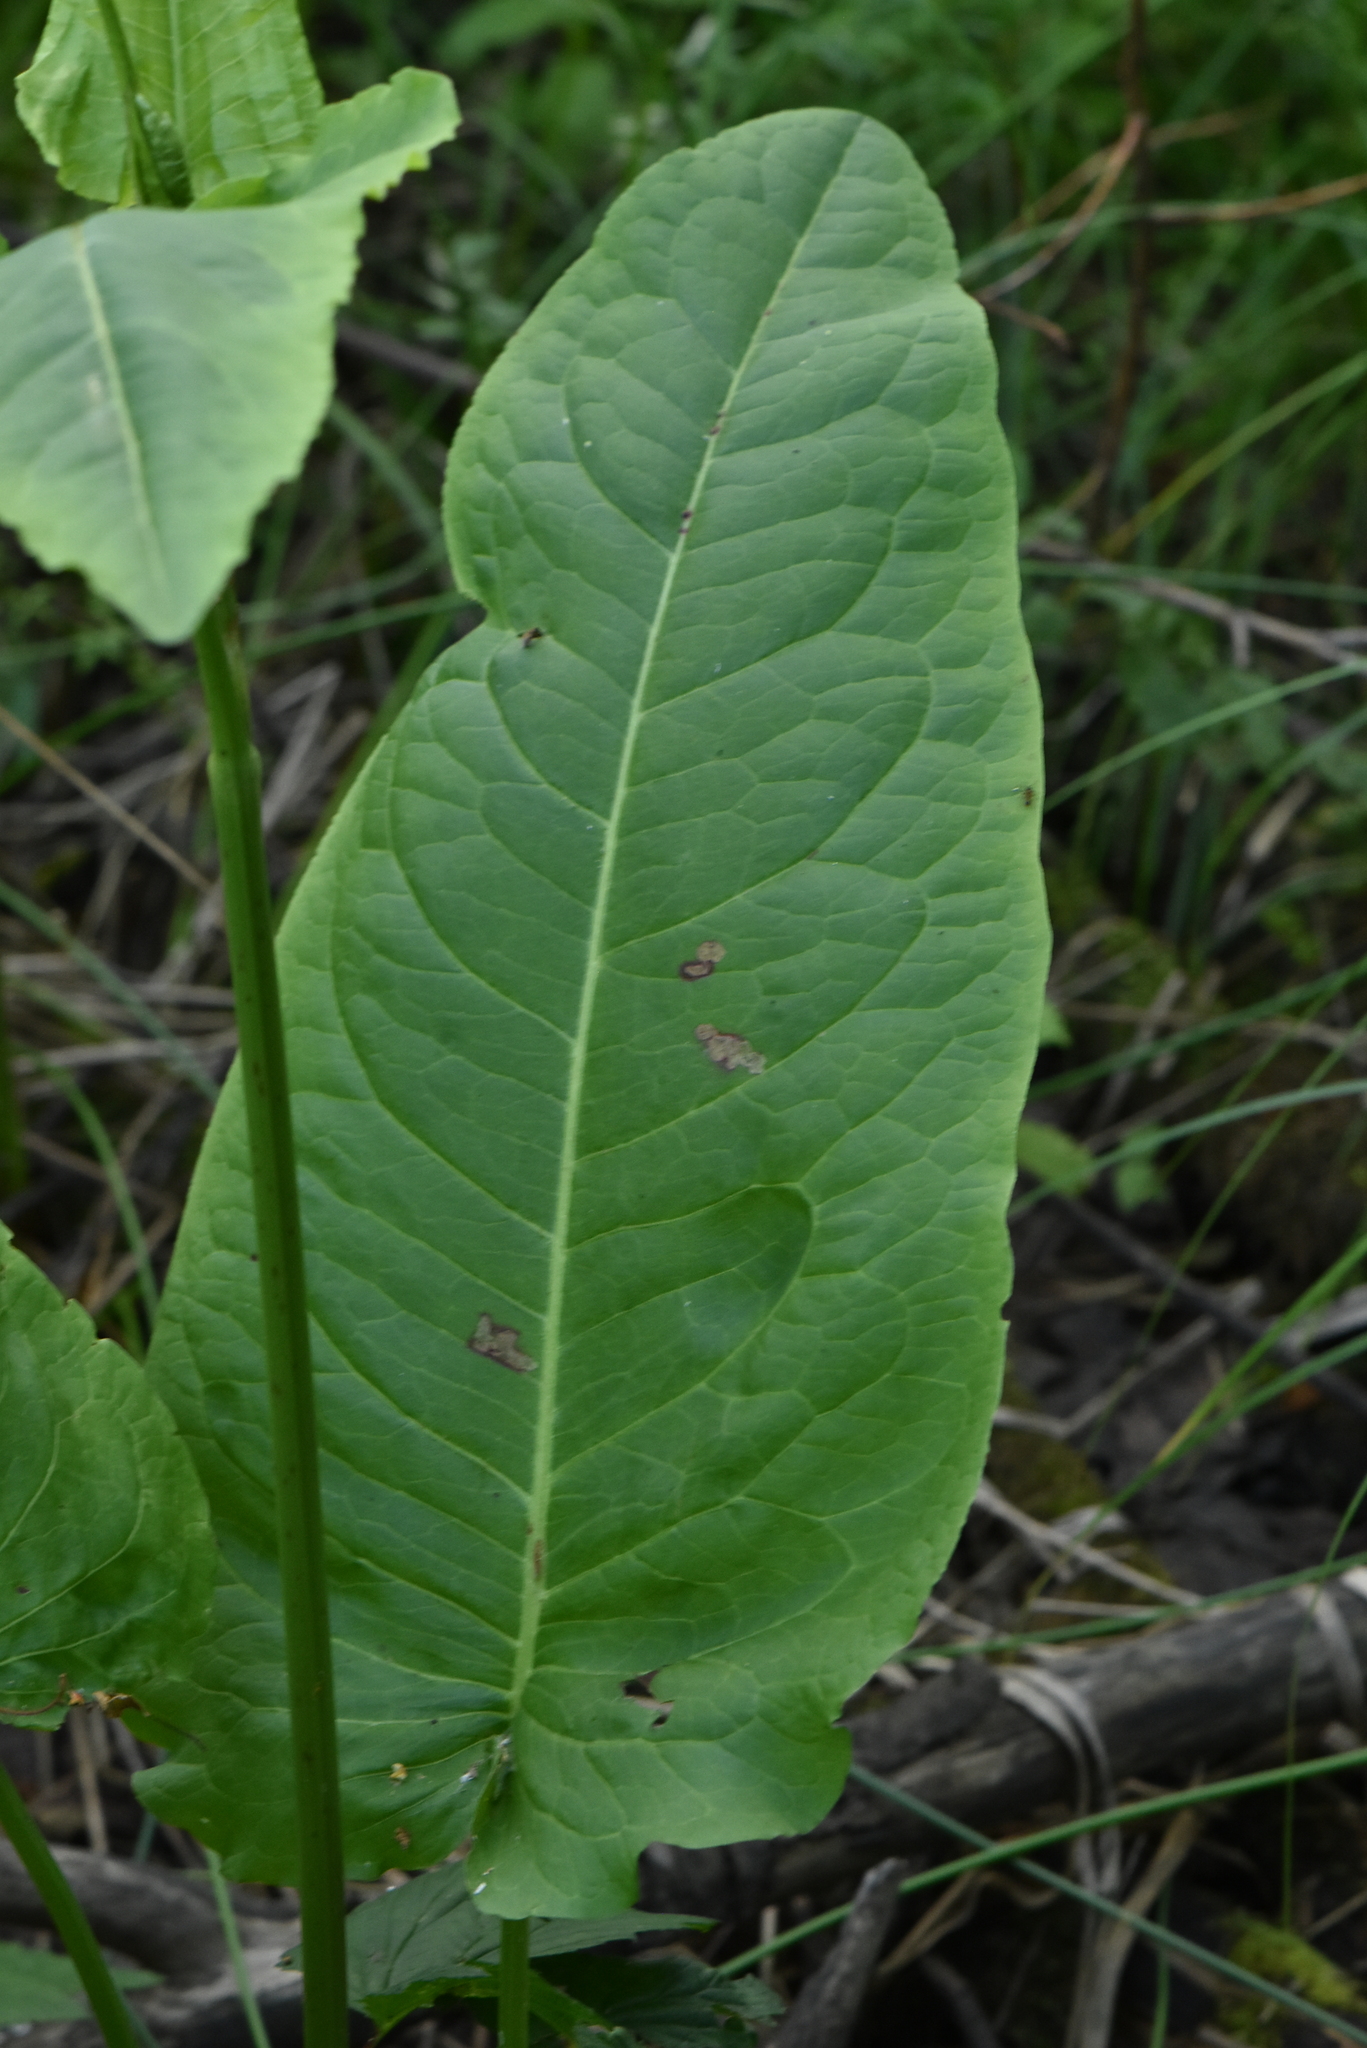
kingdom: Plantae
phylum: Tracheophyta
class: Magnoliopsida
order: Caryophyllales
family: Polygonaceae
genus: Rumex
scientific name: Rumex aquaticus
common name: Scottish dock
